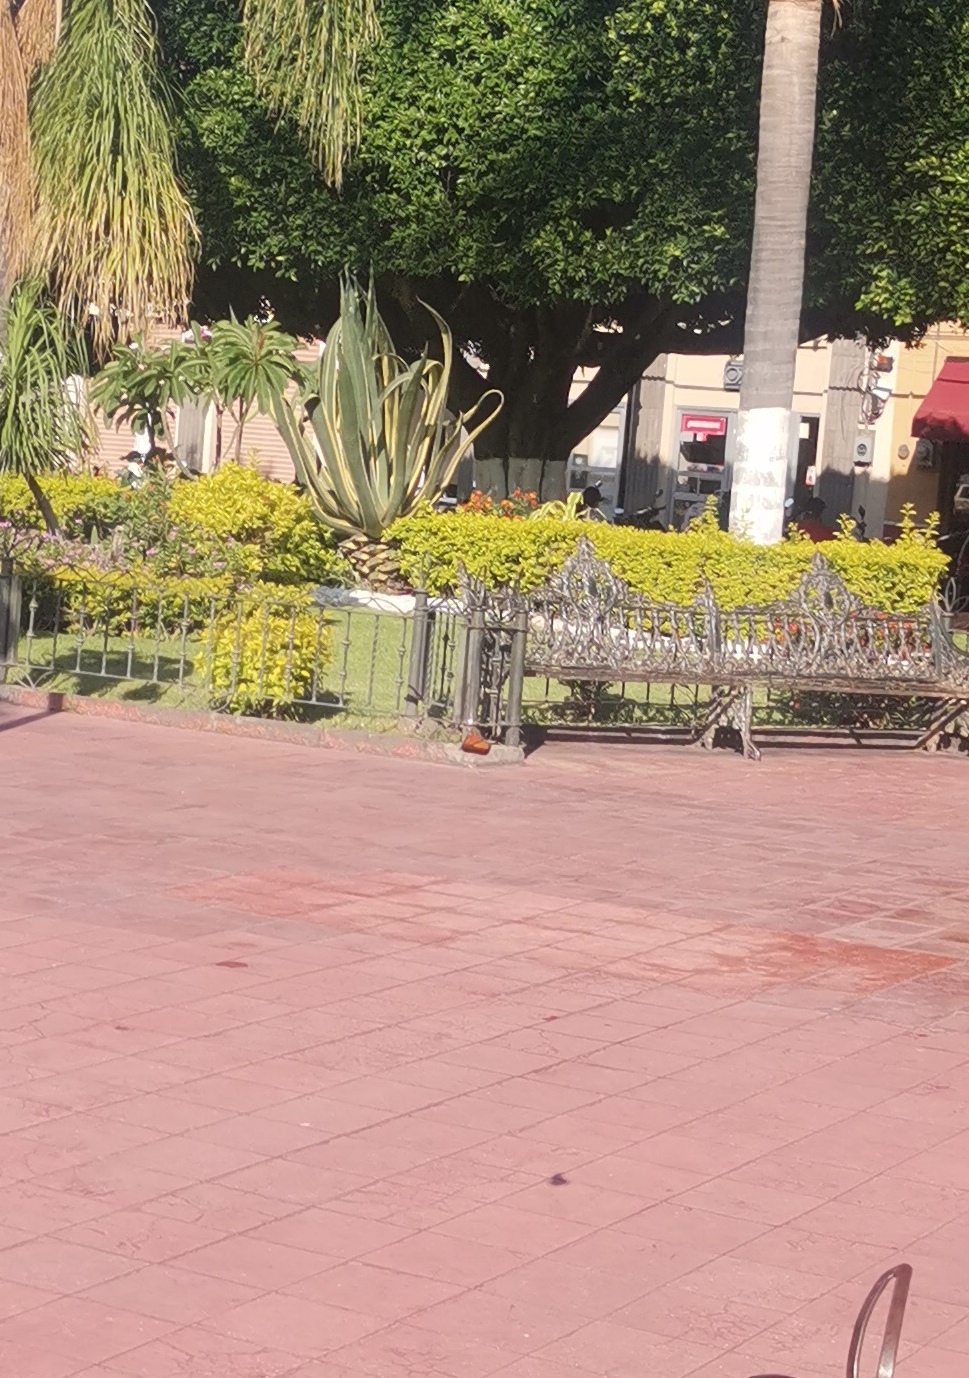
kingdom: Animalia
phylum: Arthropoda
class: Insecta
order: Lepidoptera
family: Nymphalidae
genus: Danaus
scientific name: Danaus plexippus
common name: Monarch
